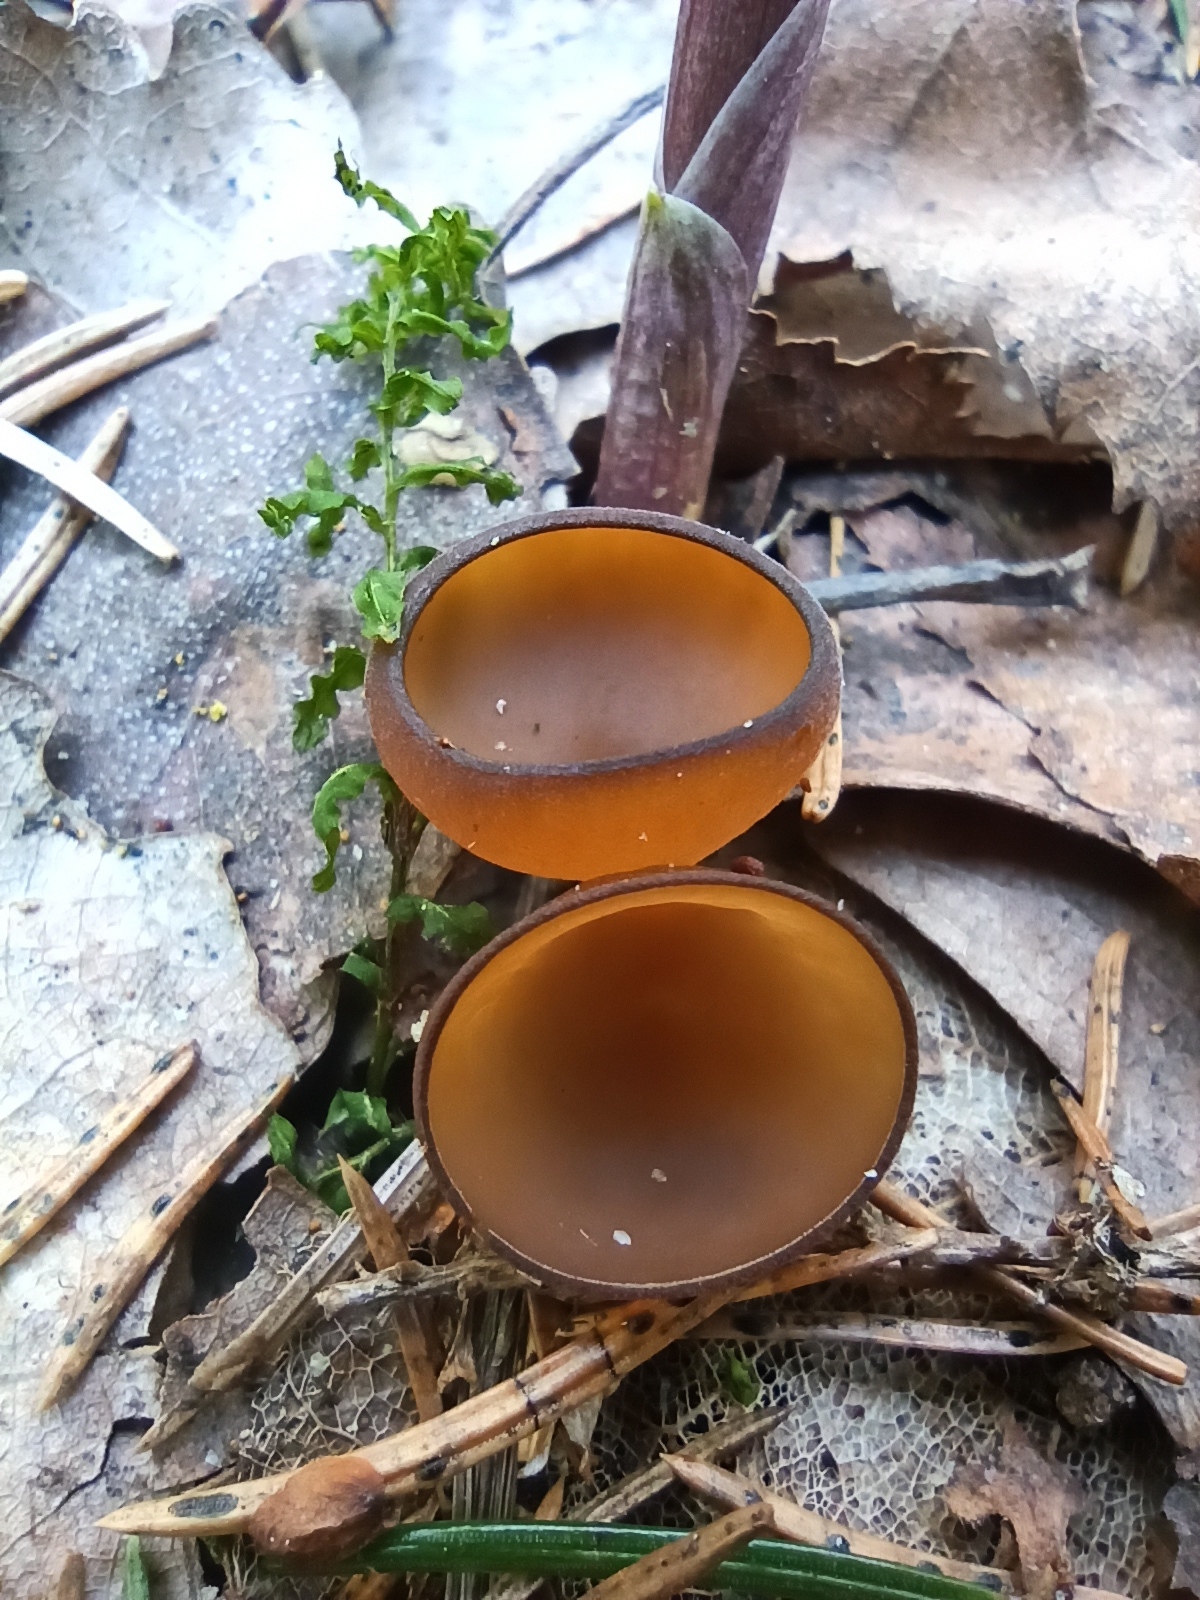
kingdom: Fungi
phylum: Ascomycota
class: Leotiomycetes
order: Helotiales
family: Sclerotiniaceae
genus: Dumontinia
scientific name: Dumontinia tuberosa
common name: Anemone cup
